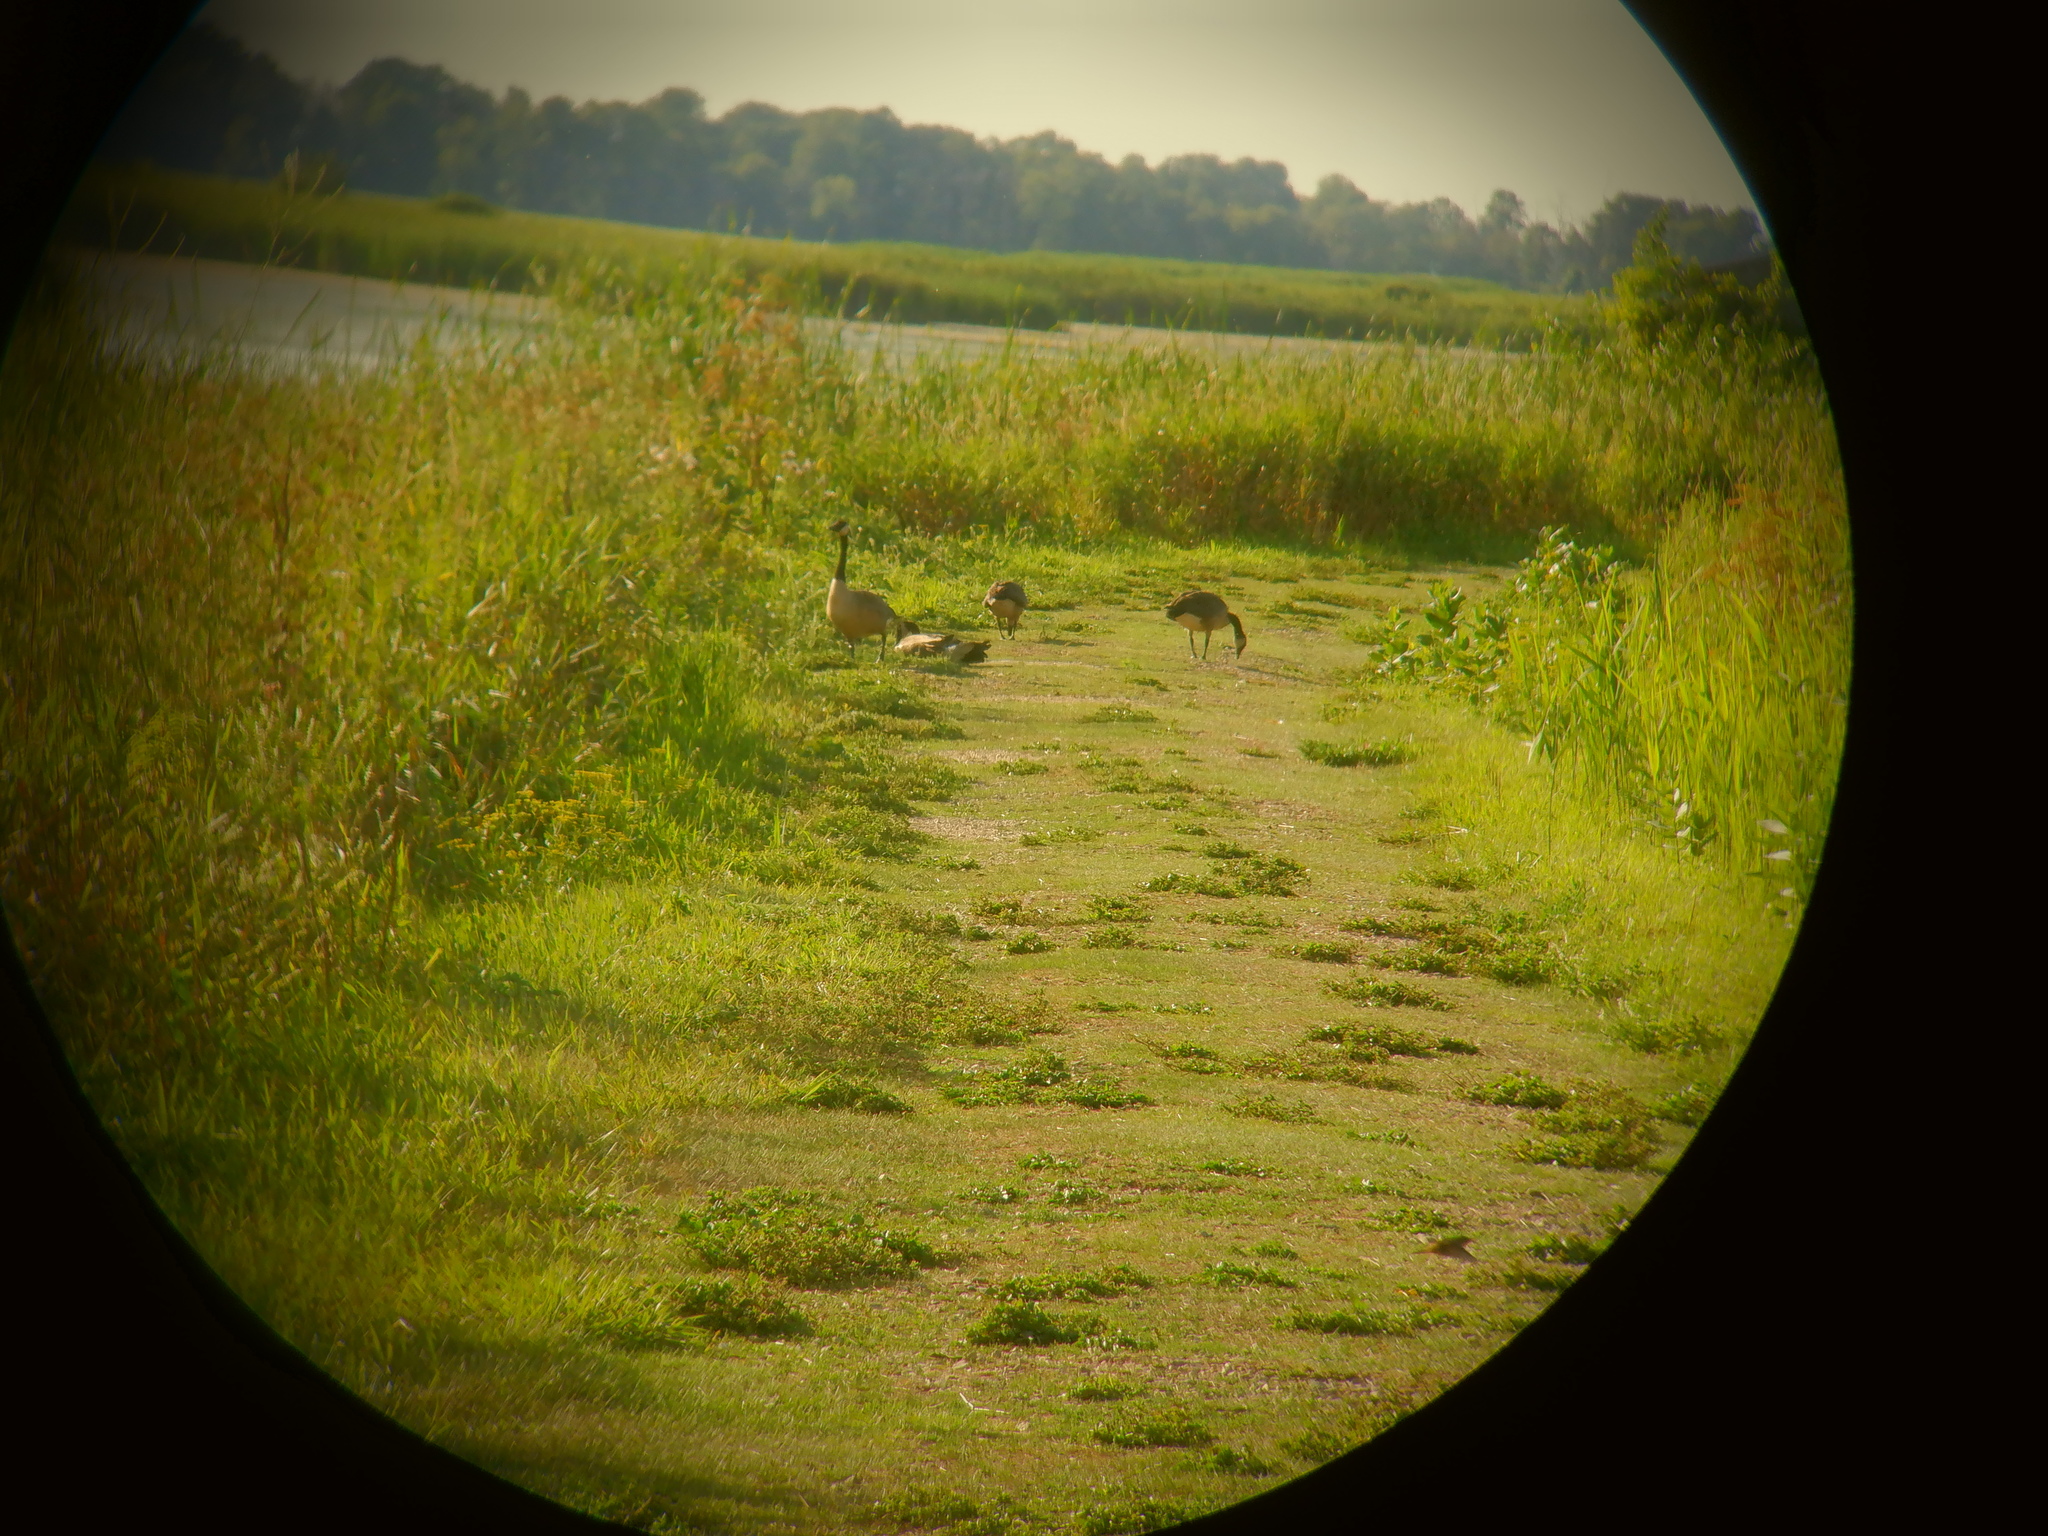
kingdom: Animalia
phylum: Chordata
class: Aves
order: Anseriformes
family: Anatidae
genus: Branta
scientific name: Branta canadensis
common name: Canada goose
